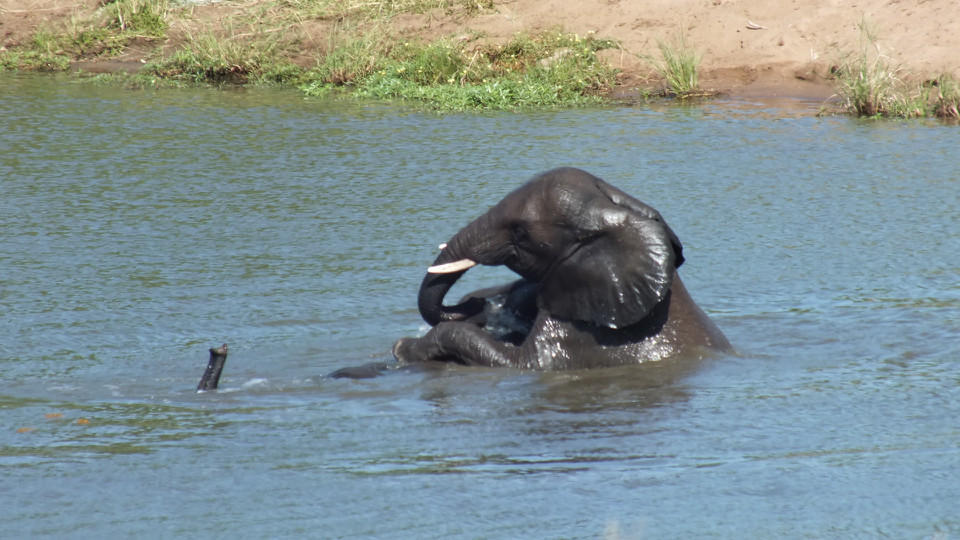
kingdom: Animalia
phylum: Chordata
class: Mammalia
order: Proboscidea
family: Elephantidae
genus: Loxodonta
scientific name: Loxodonta africana
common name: African elephant
